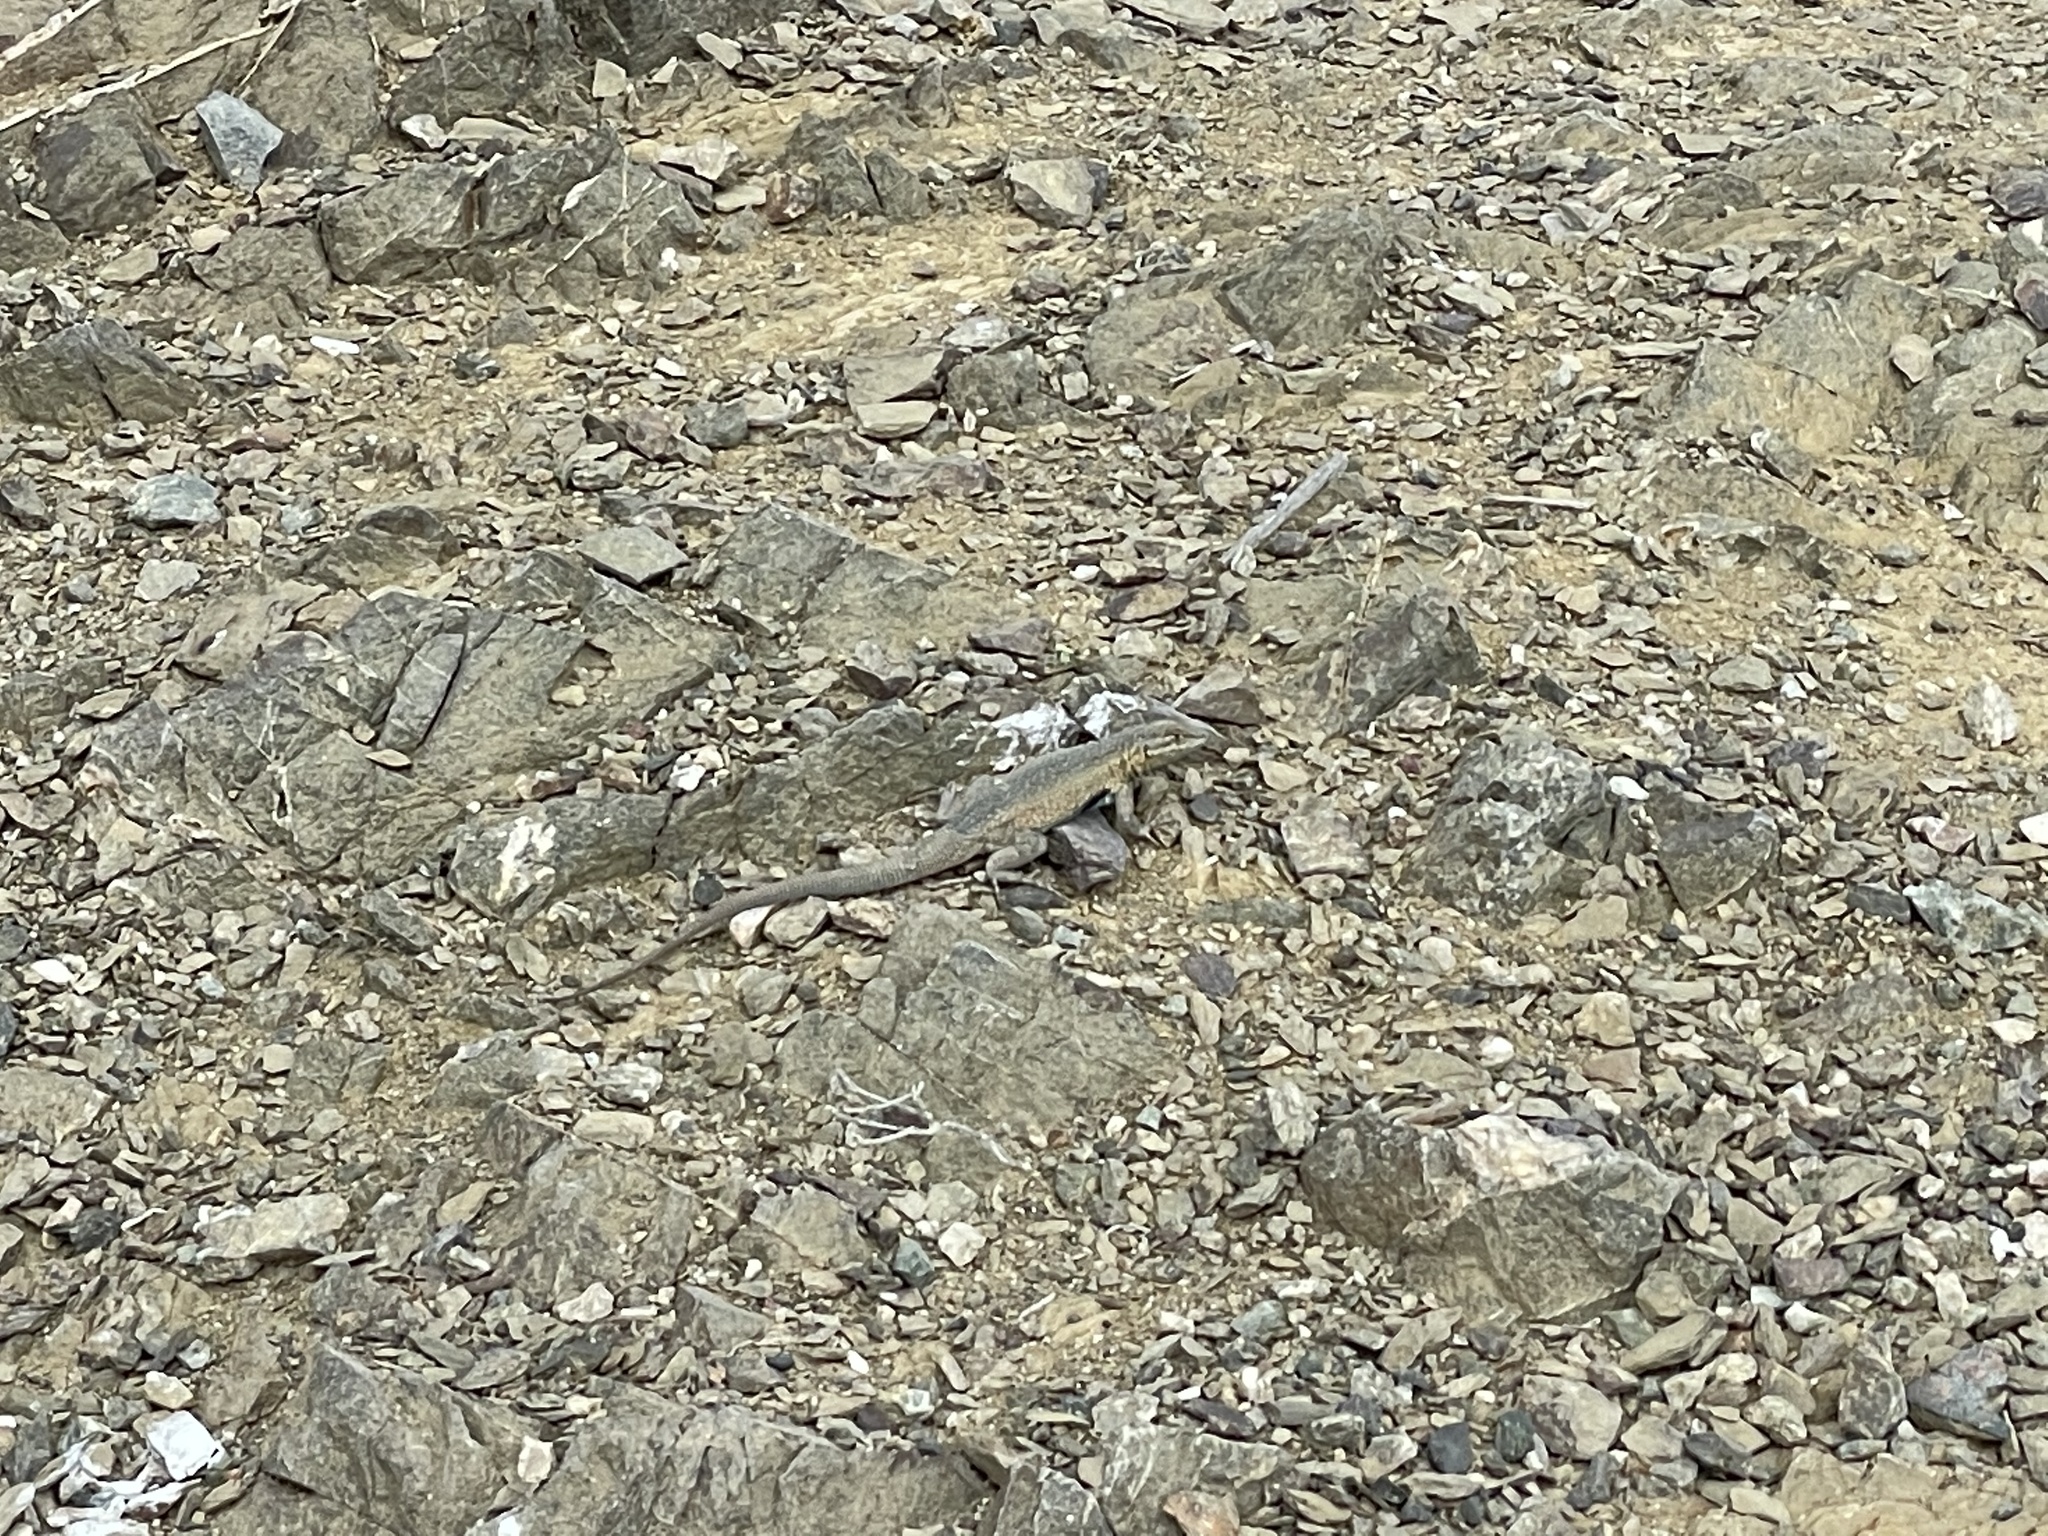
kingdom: Animalia
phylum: Chordata
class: Squamata
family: Phrynosomatidae
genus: Uta
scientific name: Uta stansburiana
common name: Side-blotched lizard
